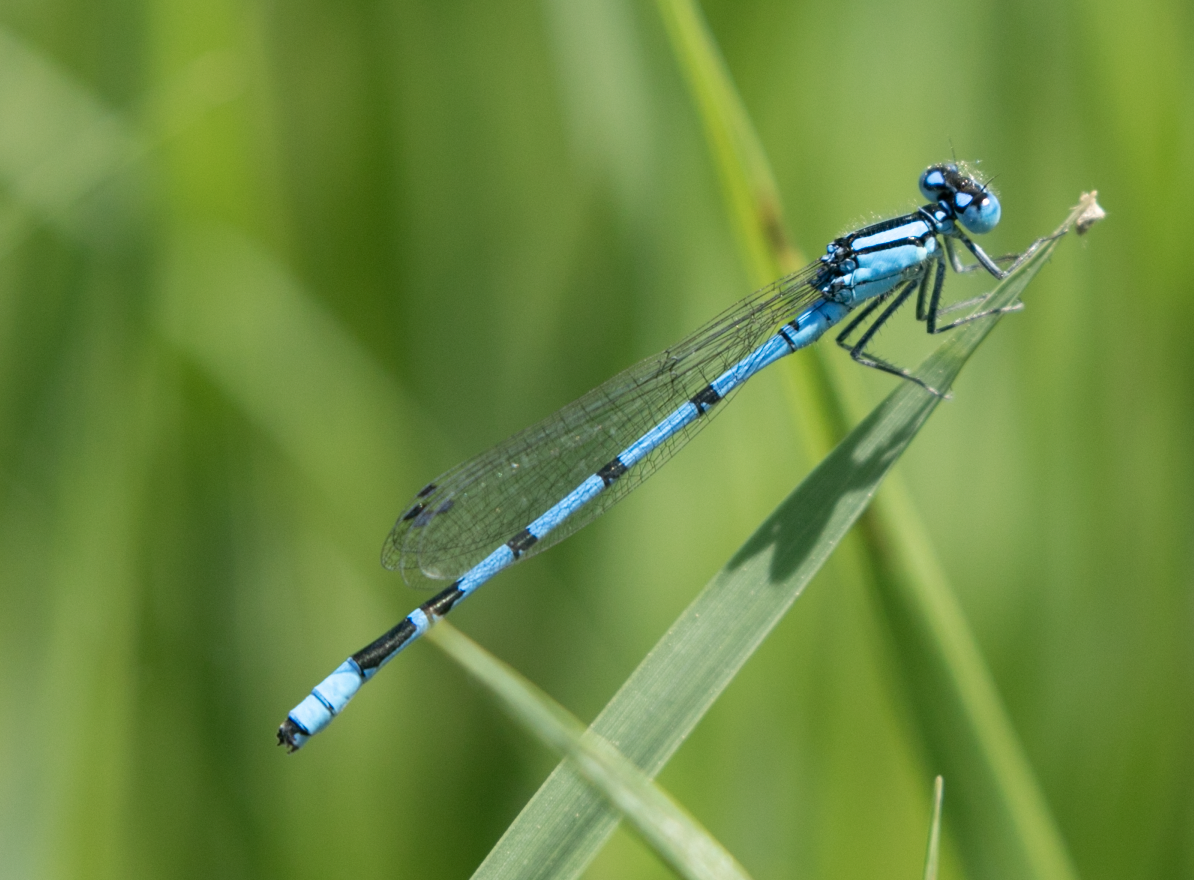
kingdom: Animalia
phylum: Arthropoda
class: Insecta
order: Odonata
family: Coenagrionidae
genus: Enallagma
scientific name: Enallagma cyathigerum
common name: Common blue damselfly
